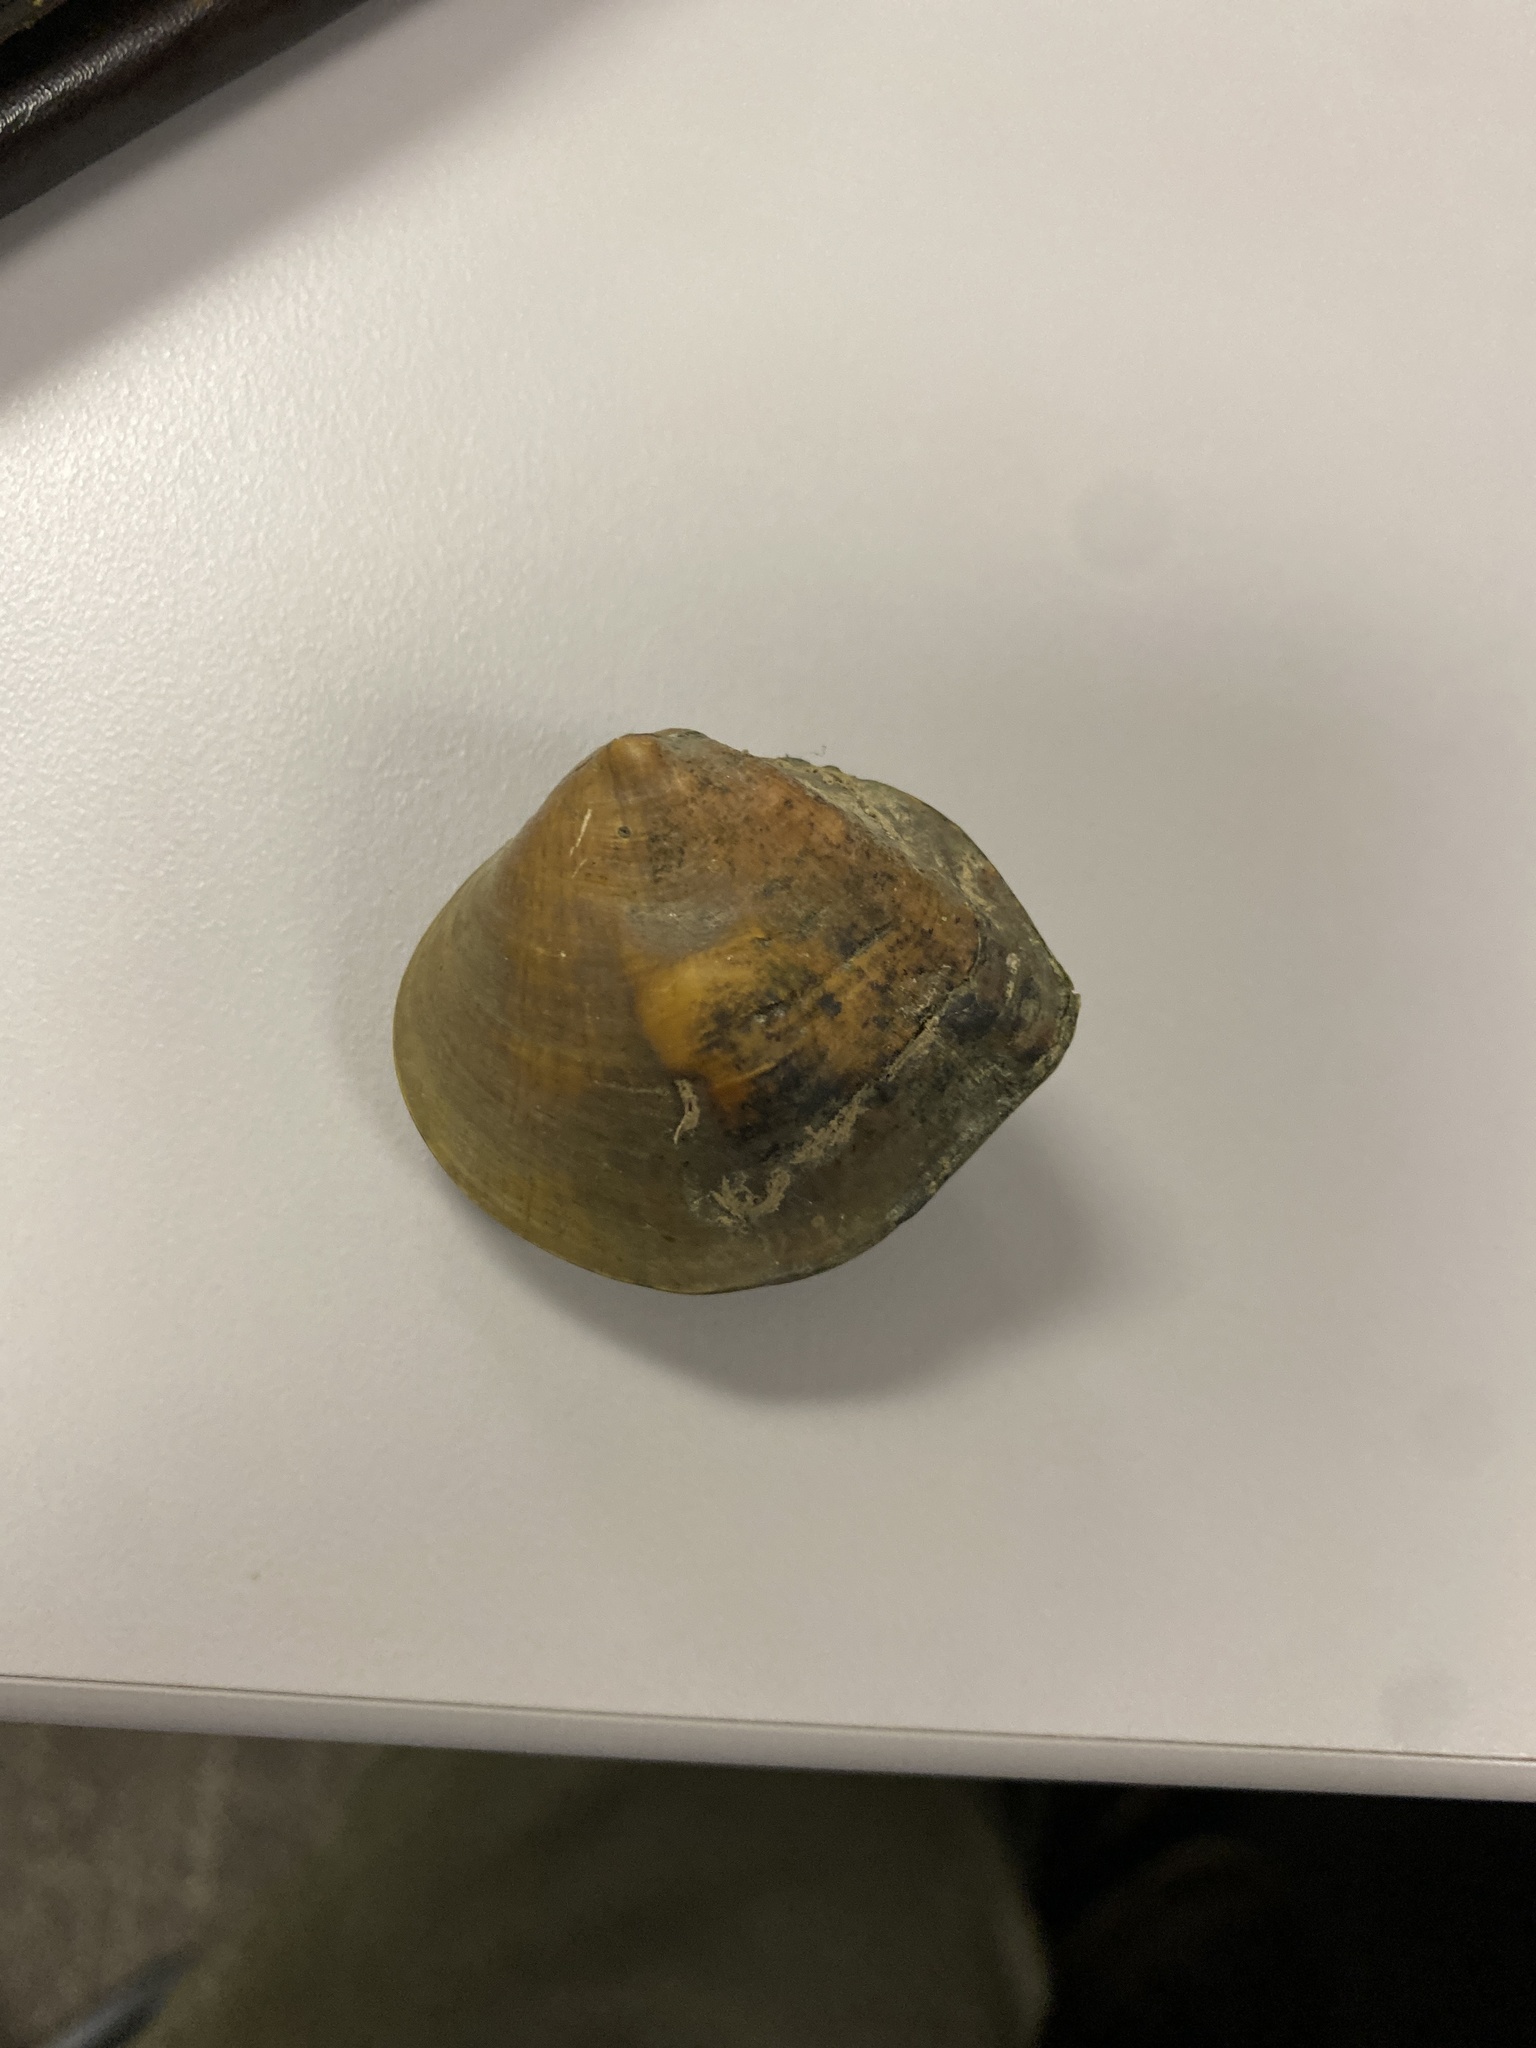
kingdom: Animalia
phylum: Mollusca
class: Bivalvia
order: Unionida
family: Unionidae
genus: Obliquaria
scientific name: Obliquaria reflexa
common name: Threehorn wartyback
